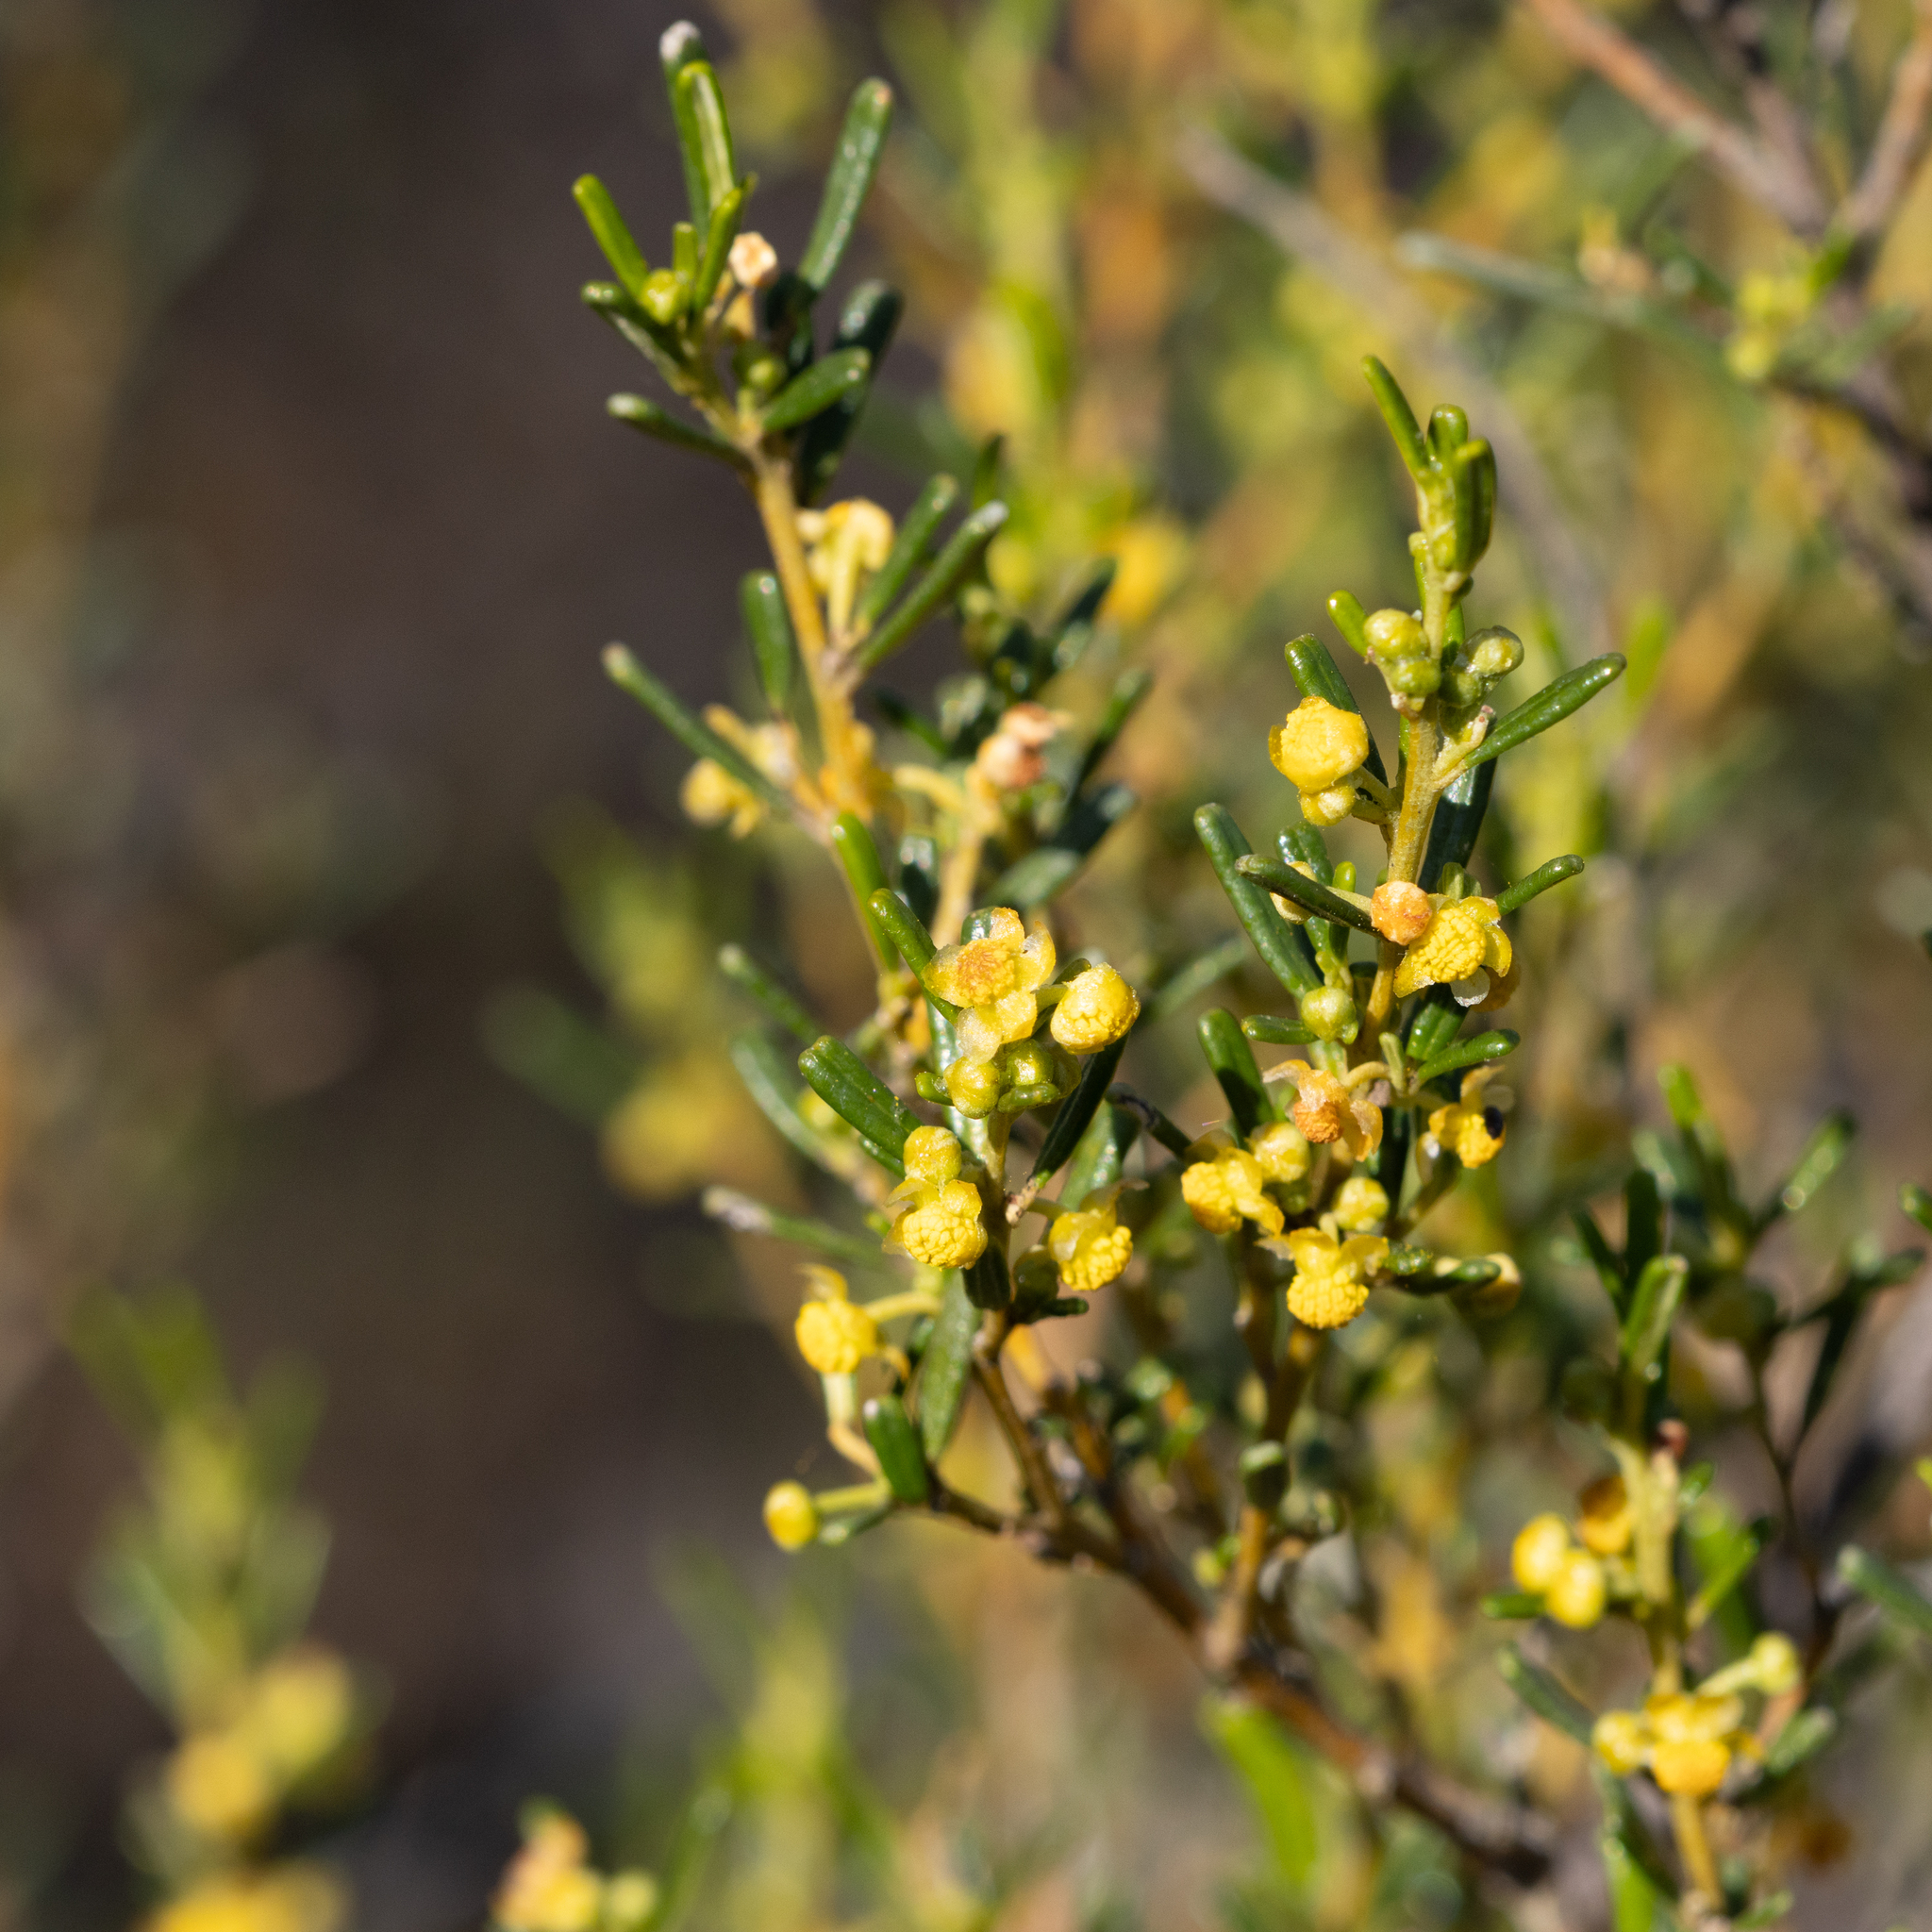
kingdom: Plantae
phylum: Tracheophyta
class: Magnoliopsida
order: Malpighiales
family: Euphorbiaceae
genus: Beyeria
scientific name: Beyeria lechenaultii
